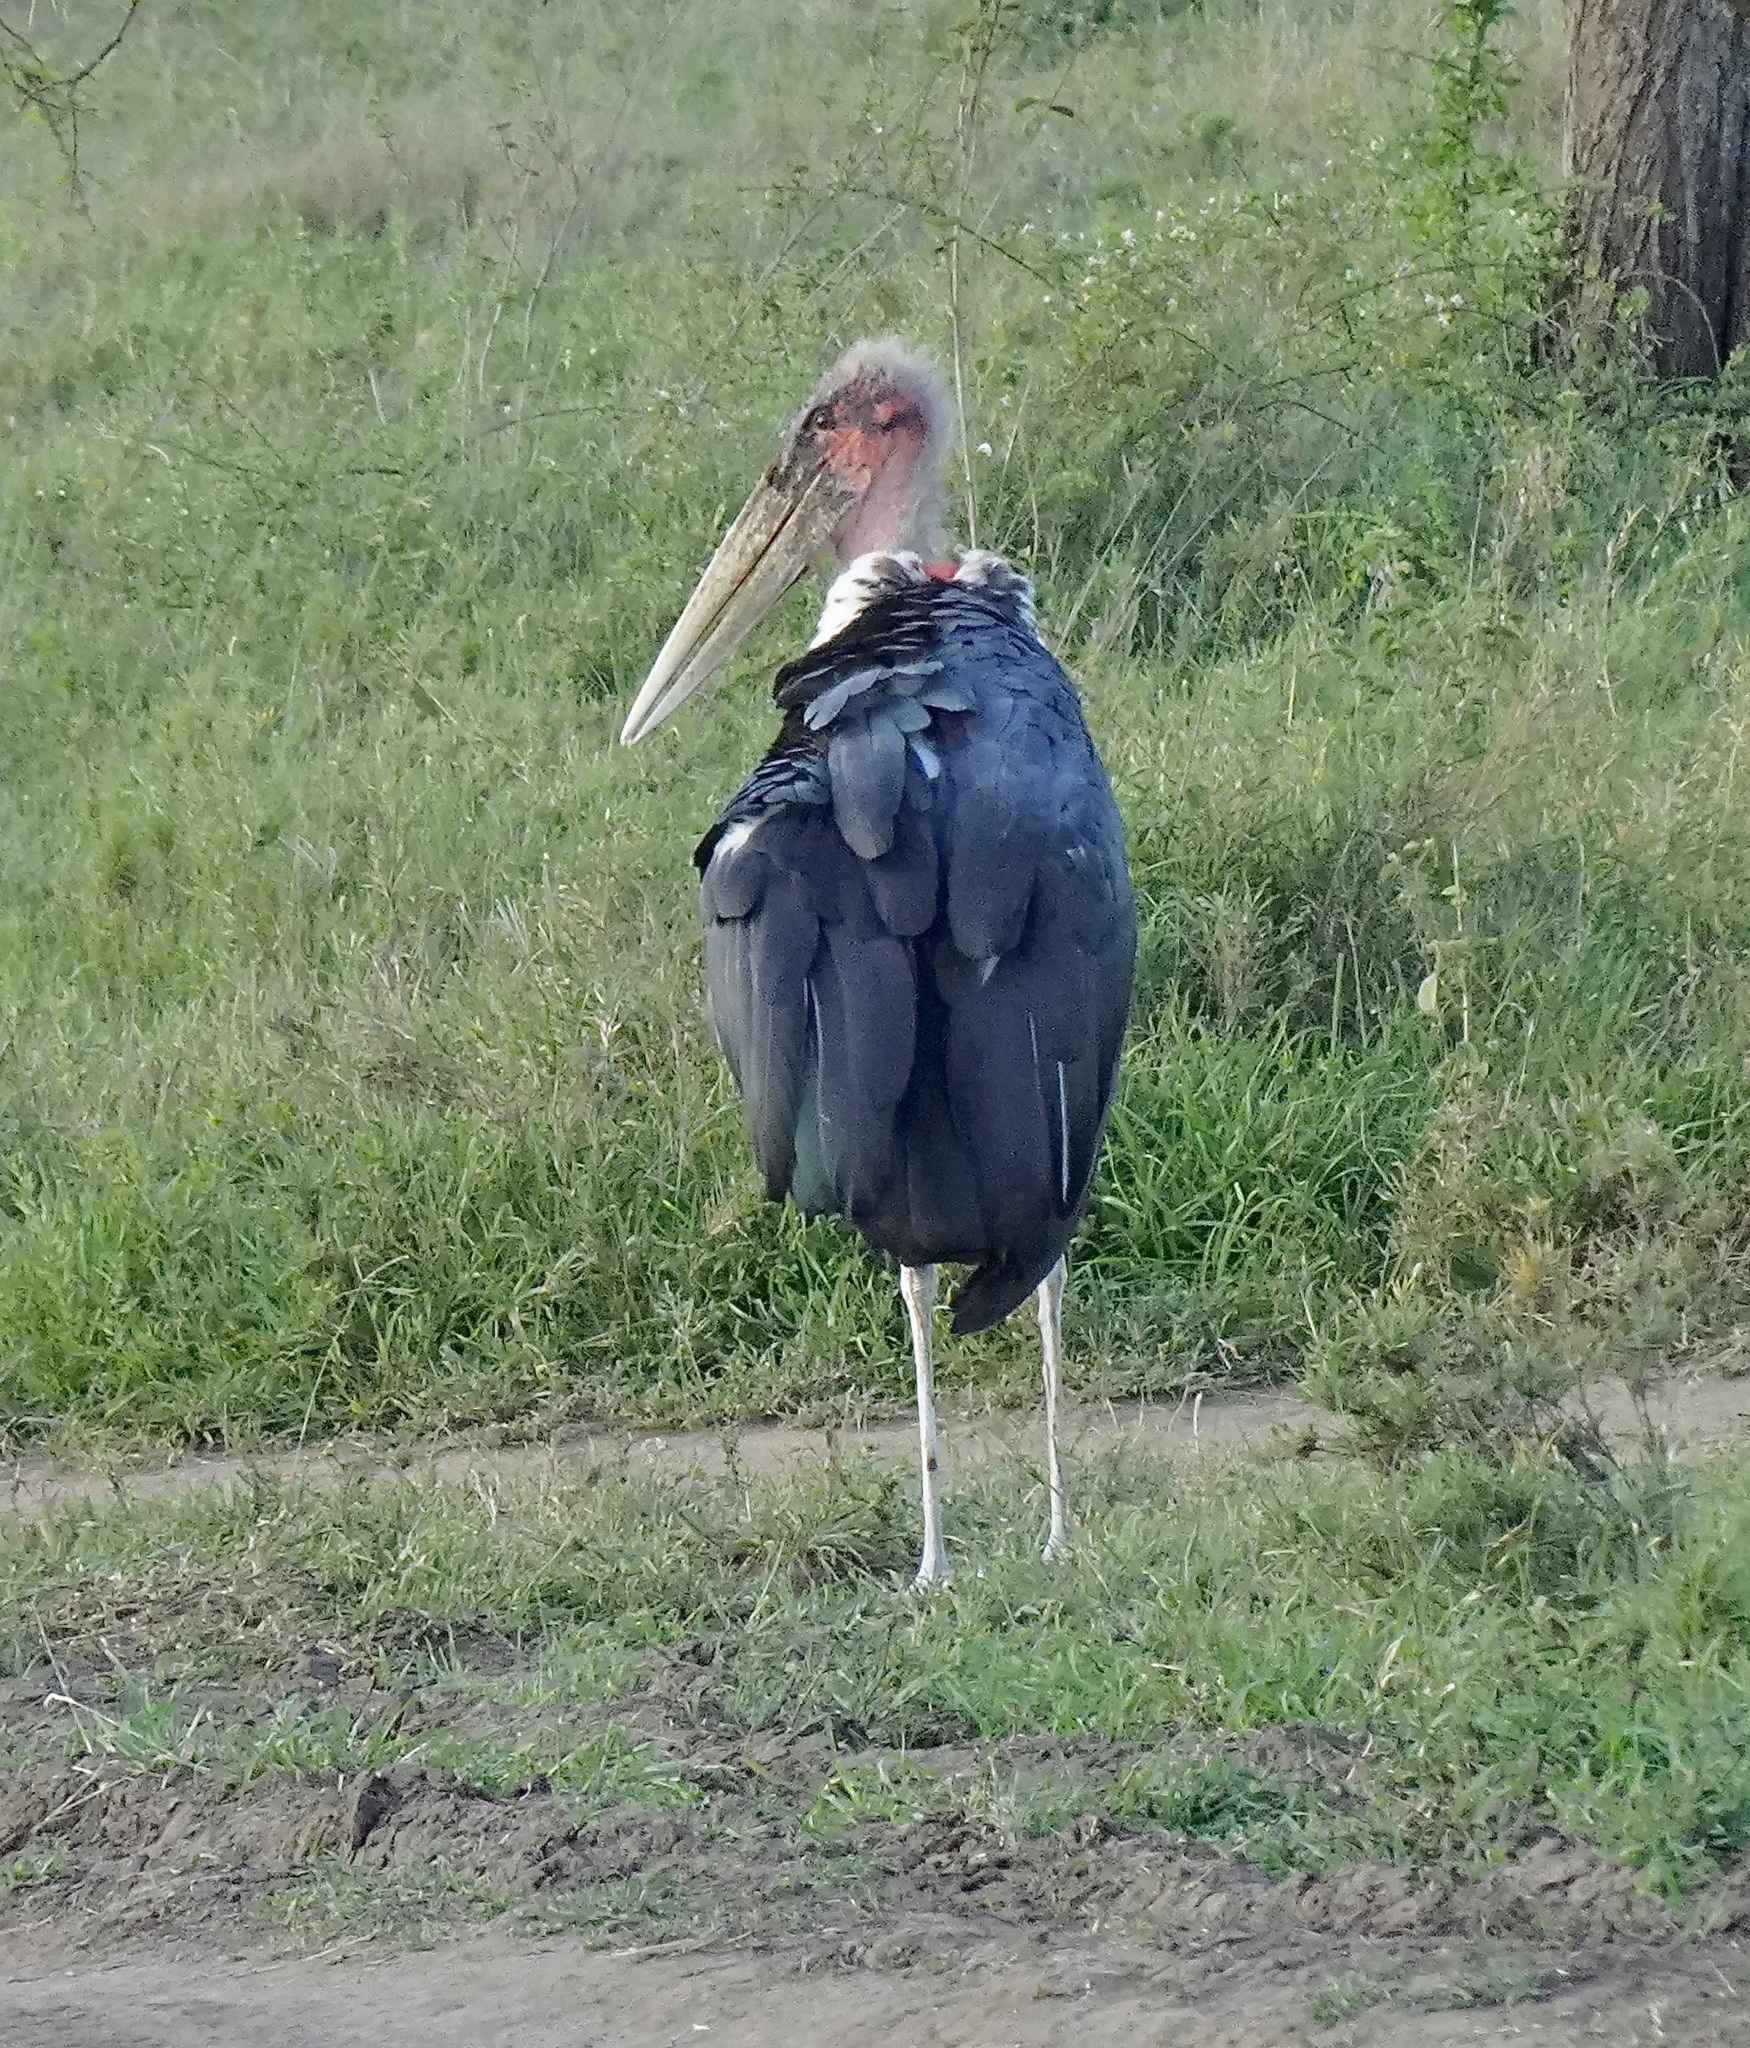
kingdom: Animalia
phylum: Chordata
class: Aves
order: Ciconiiformes
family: Ciconiidae
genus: Leptoptilos
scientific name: Leptoptilos crumenifer
